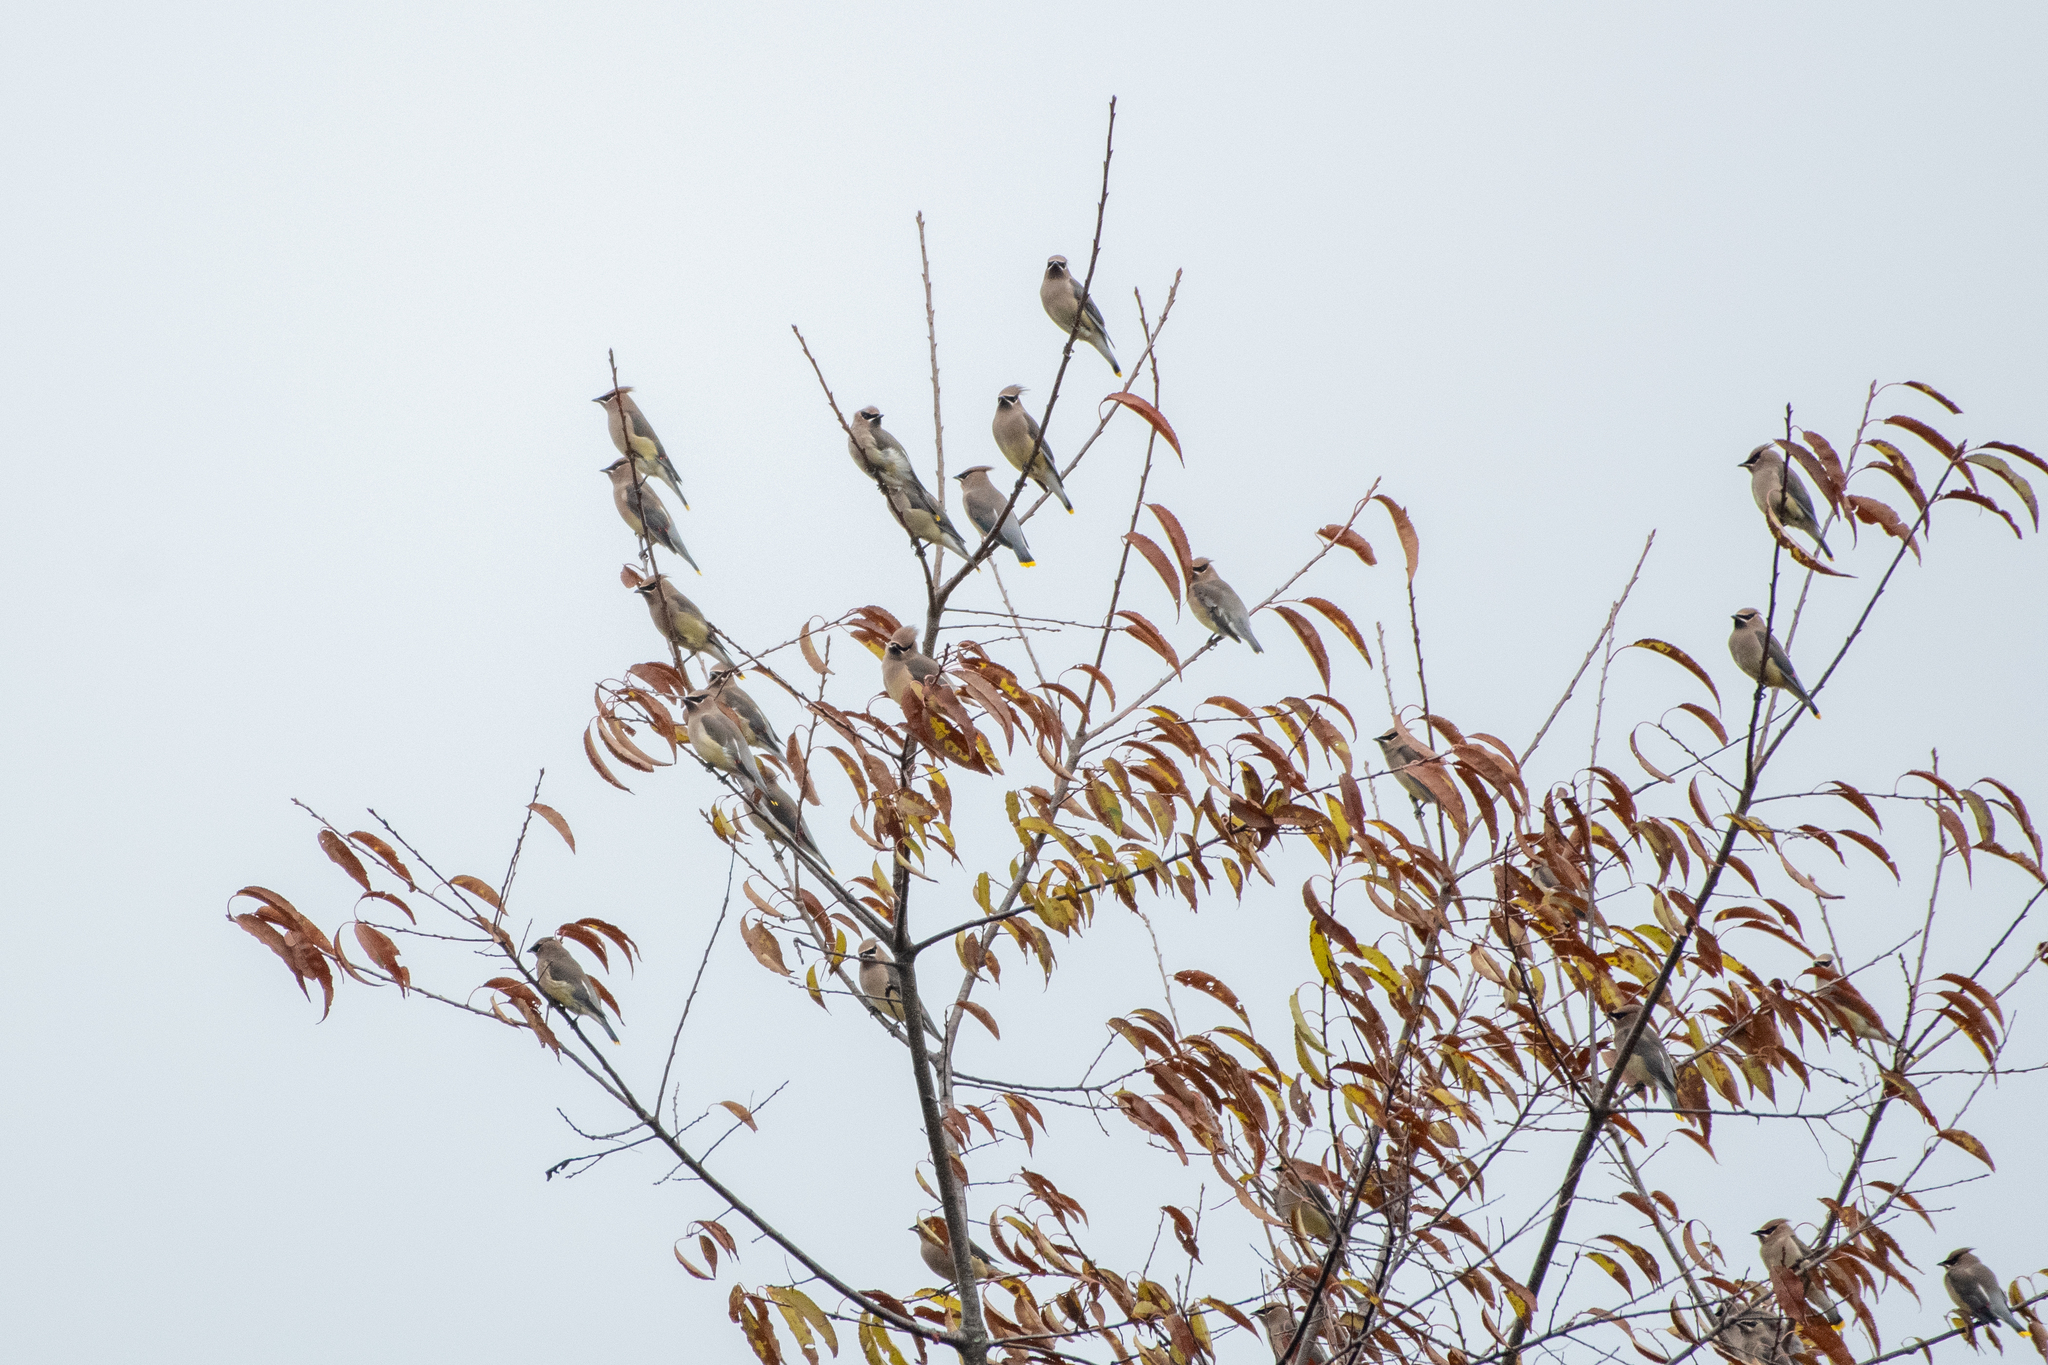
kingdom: Animalia
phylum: Chordata
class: Aves
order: Passeriformes
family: Bombycillidae
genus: Bombycilla
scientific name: Bombycilla cedrorum
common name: Cedar waxwing
